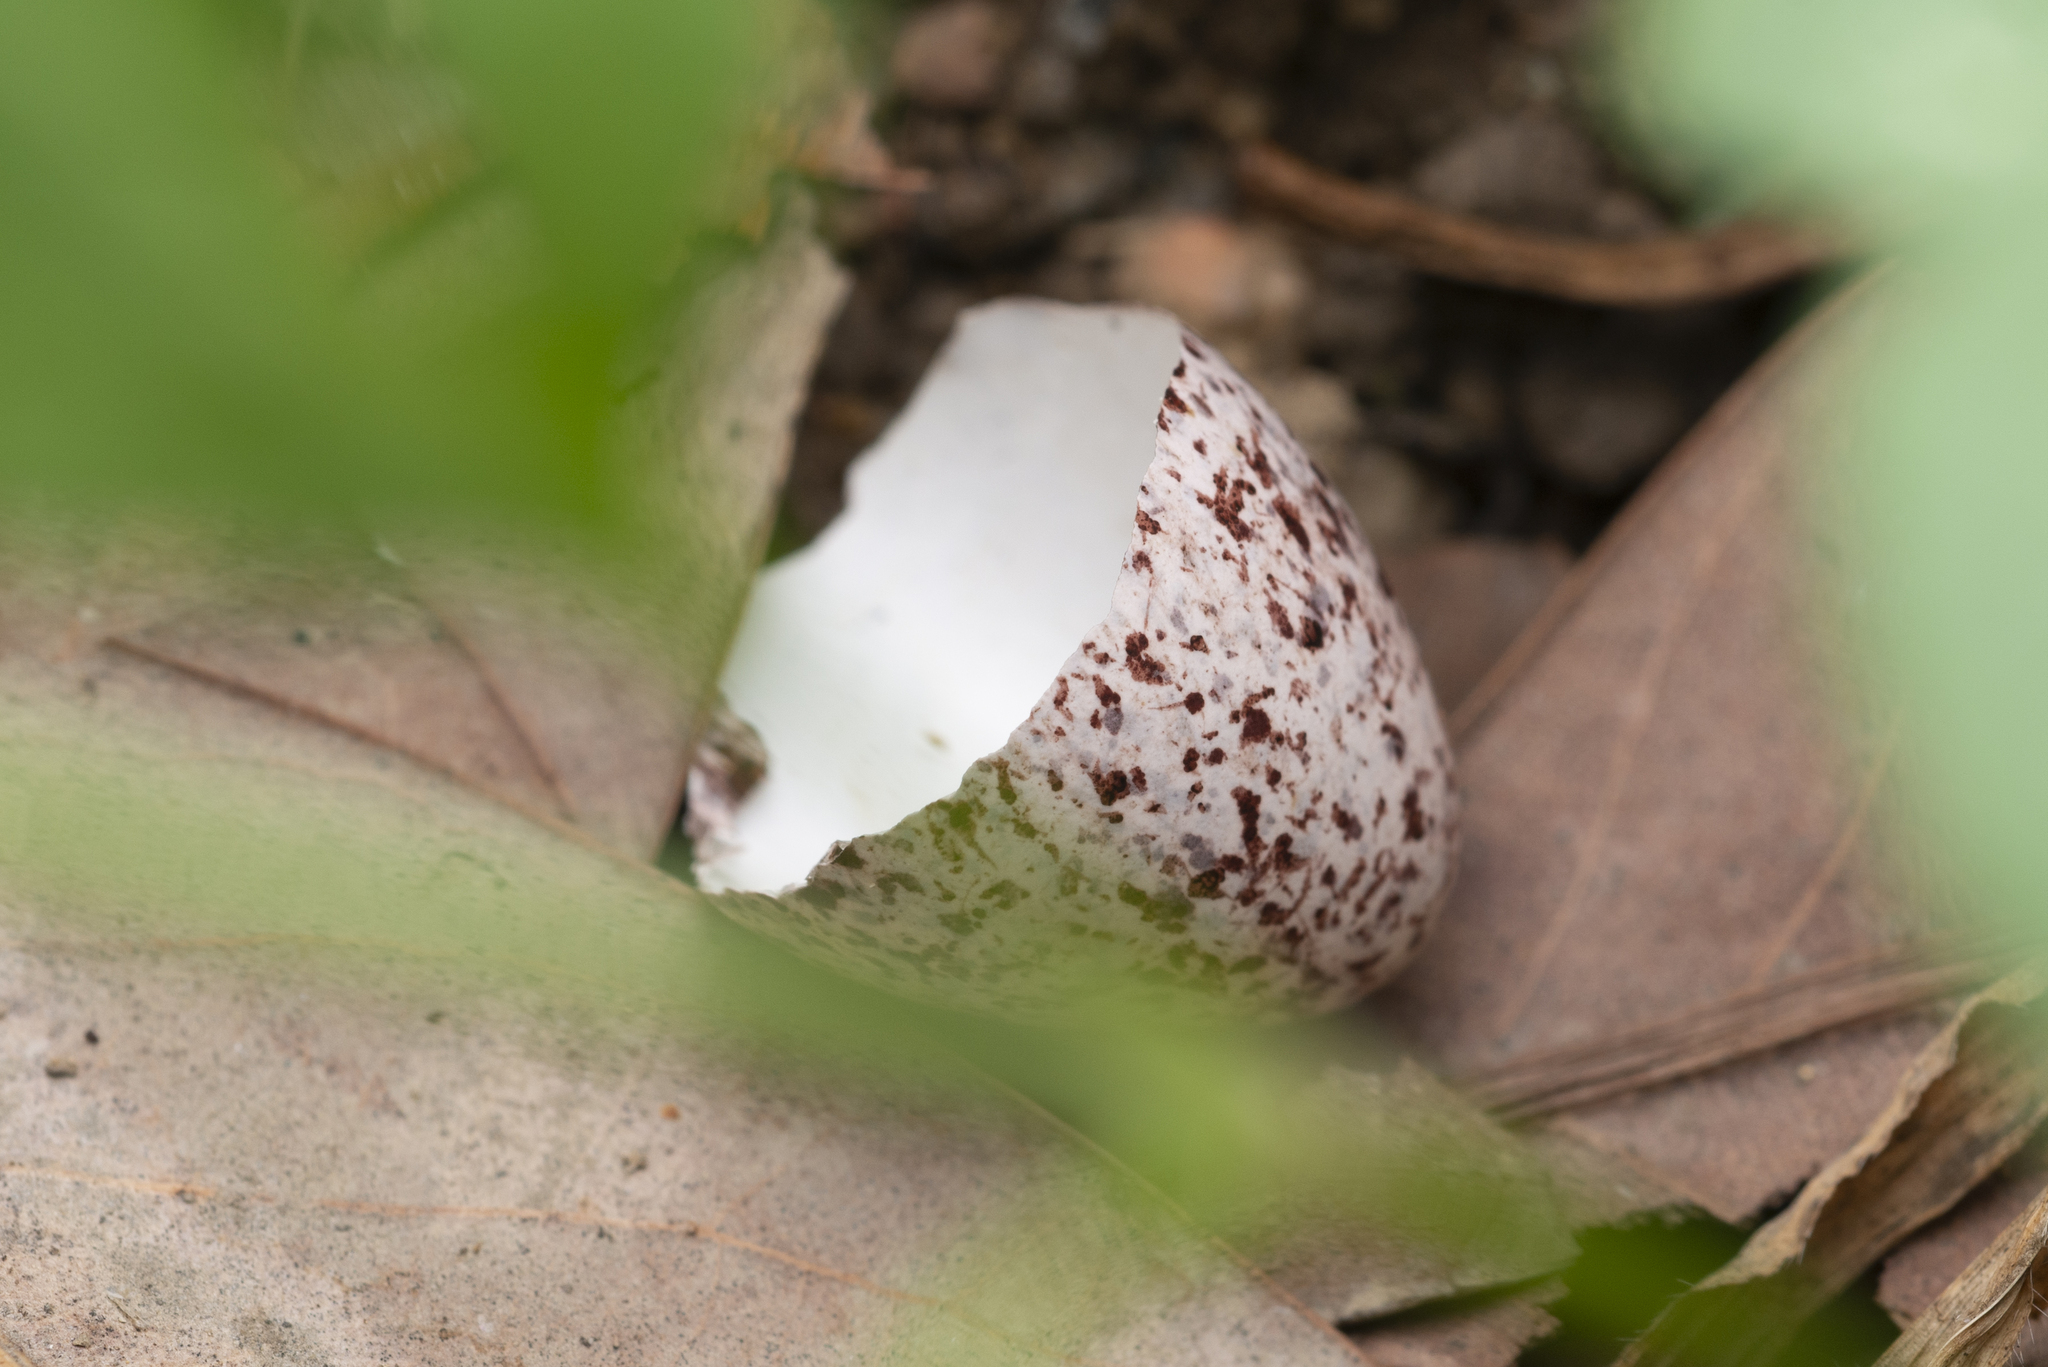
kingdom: Animalia
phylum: Chordata
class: Aves
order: Passeriformes
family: Pycnonotidae
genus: Pycnonotus
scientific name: Pycnonotus jocosus
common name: Red-whiskered bulbul
